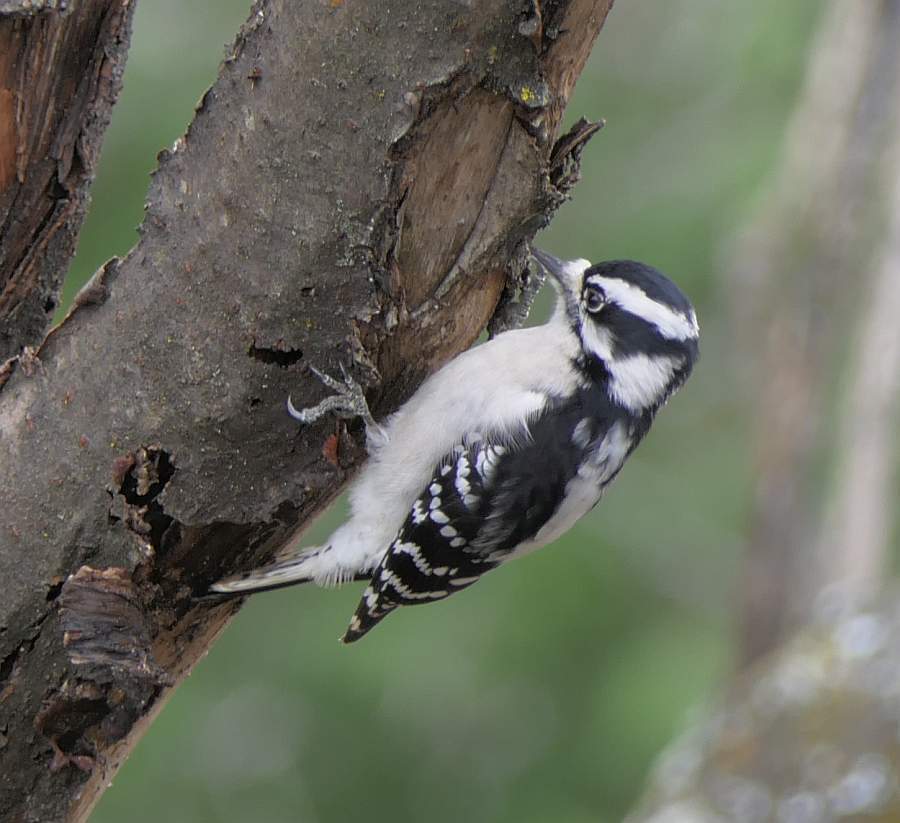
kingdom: Animalia
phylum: Chordata
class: Aves
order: Piciformes
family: Picidae
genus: Dryobates
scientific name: Dryobates pubescens
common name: Downy woodpecker
